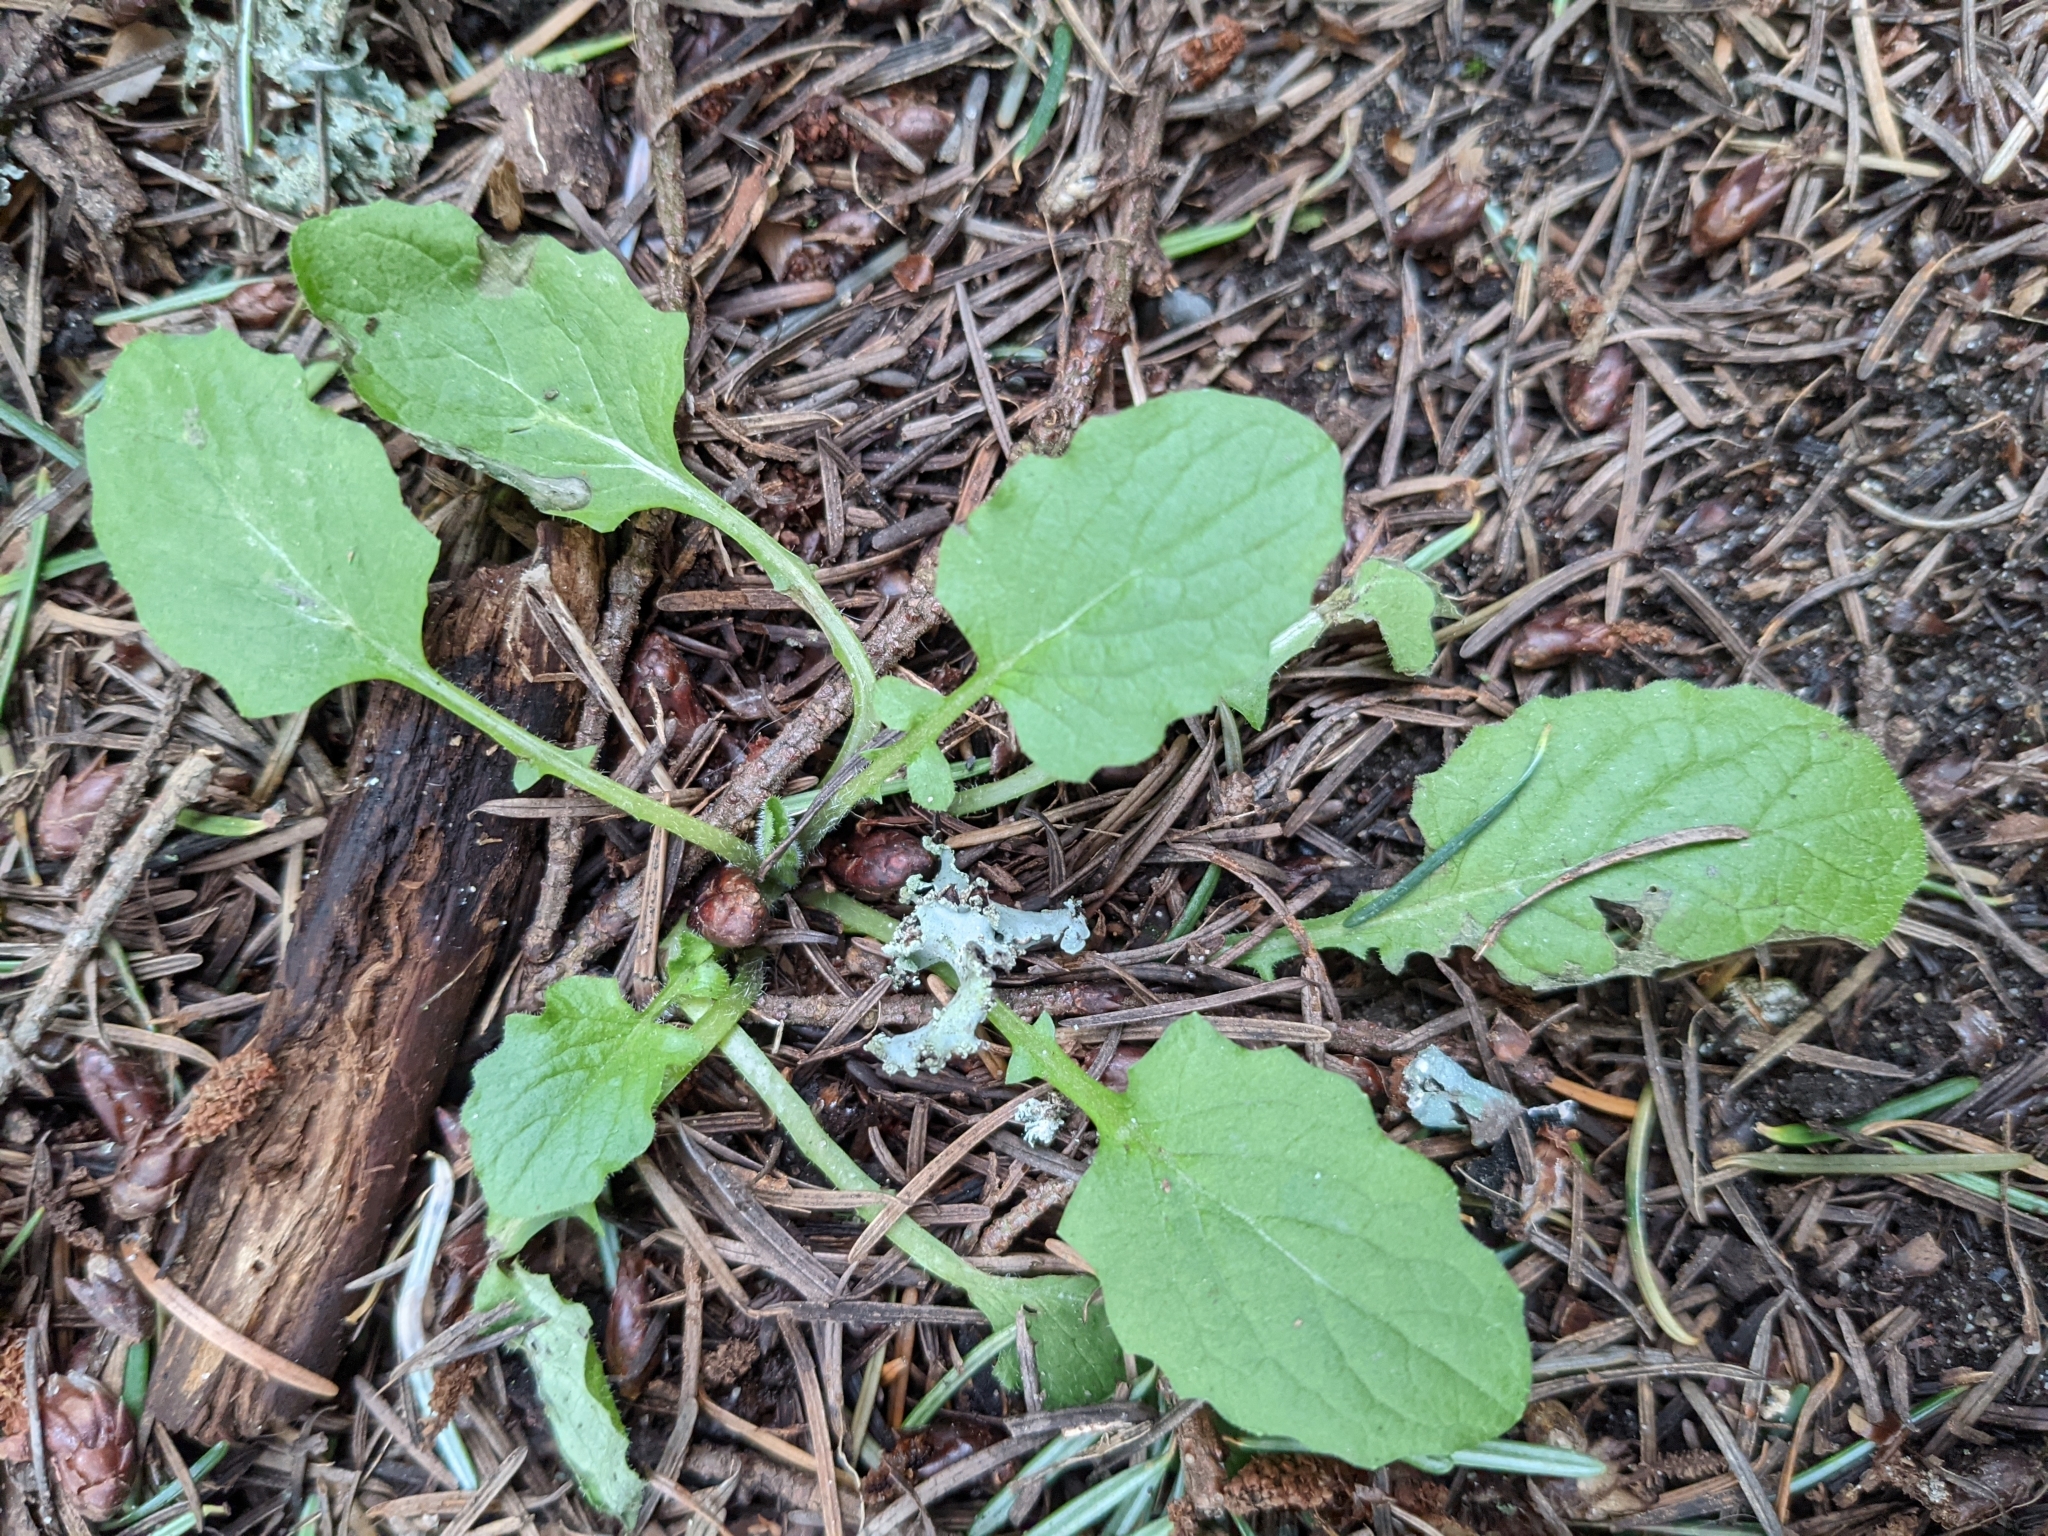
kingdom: Plantae
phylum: Tracheophyta
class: Magnoliopsida
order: Asterales
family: Asteraceae
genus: Lapsana
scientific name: Lapsana communis
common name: Nipplewort
